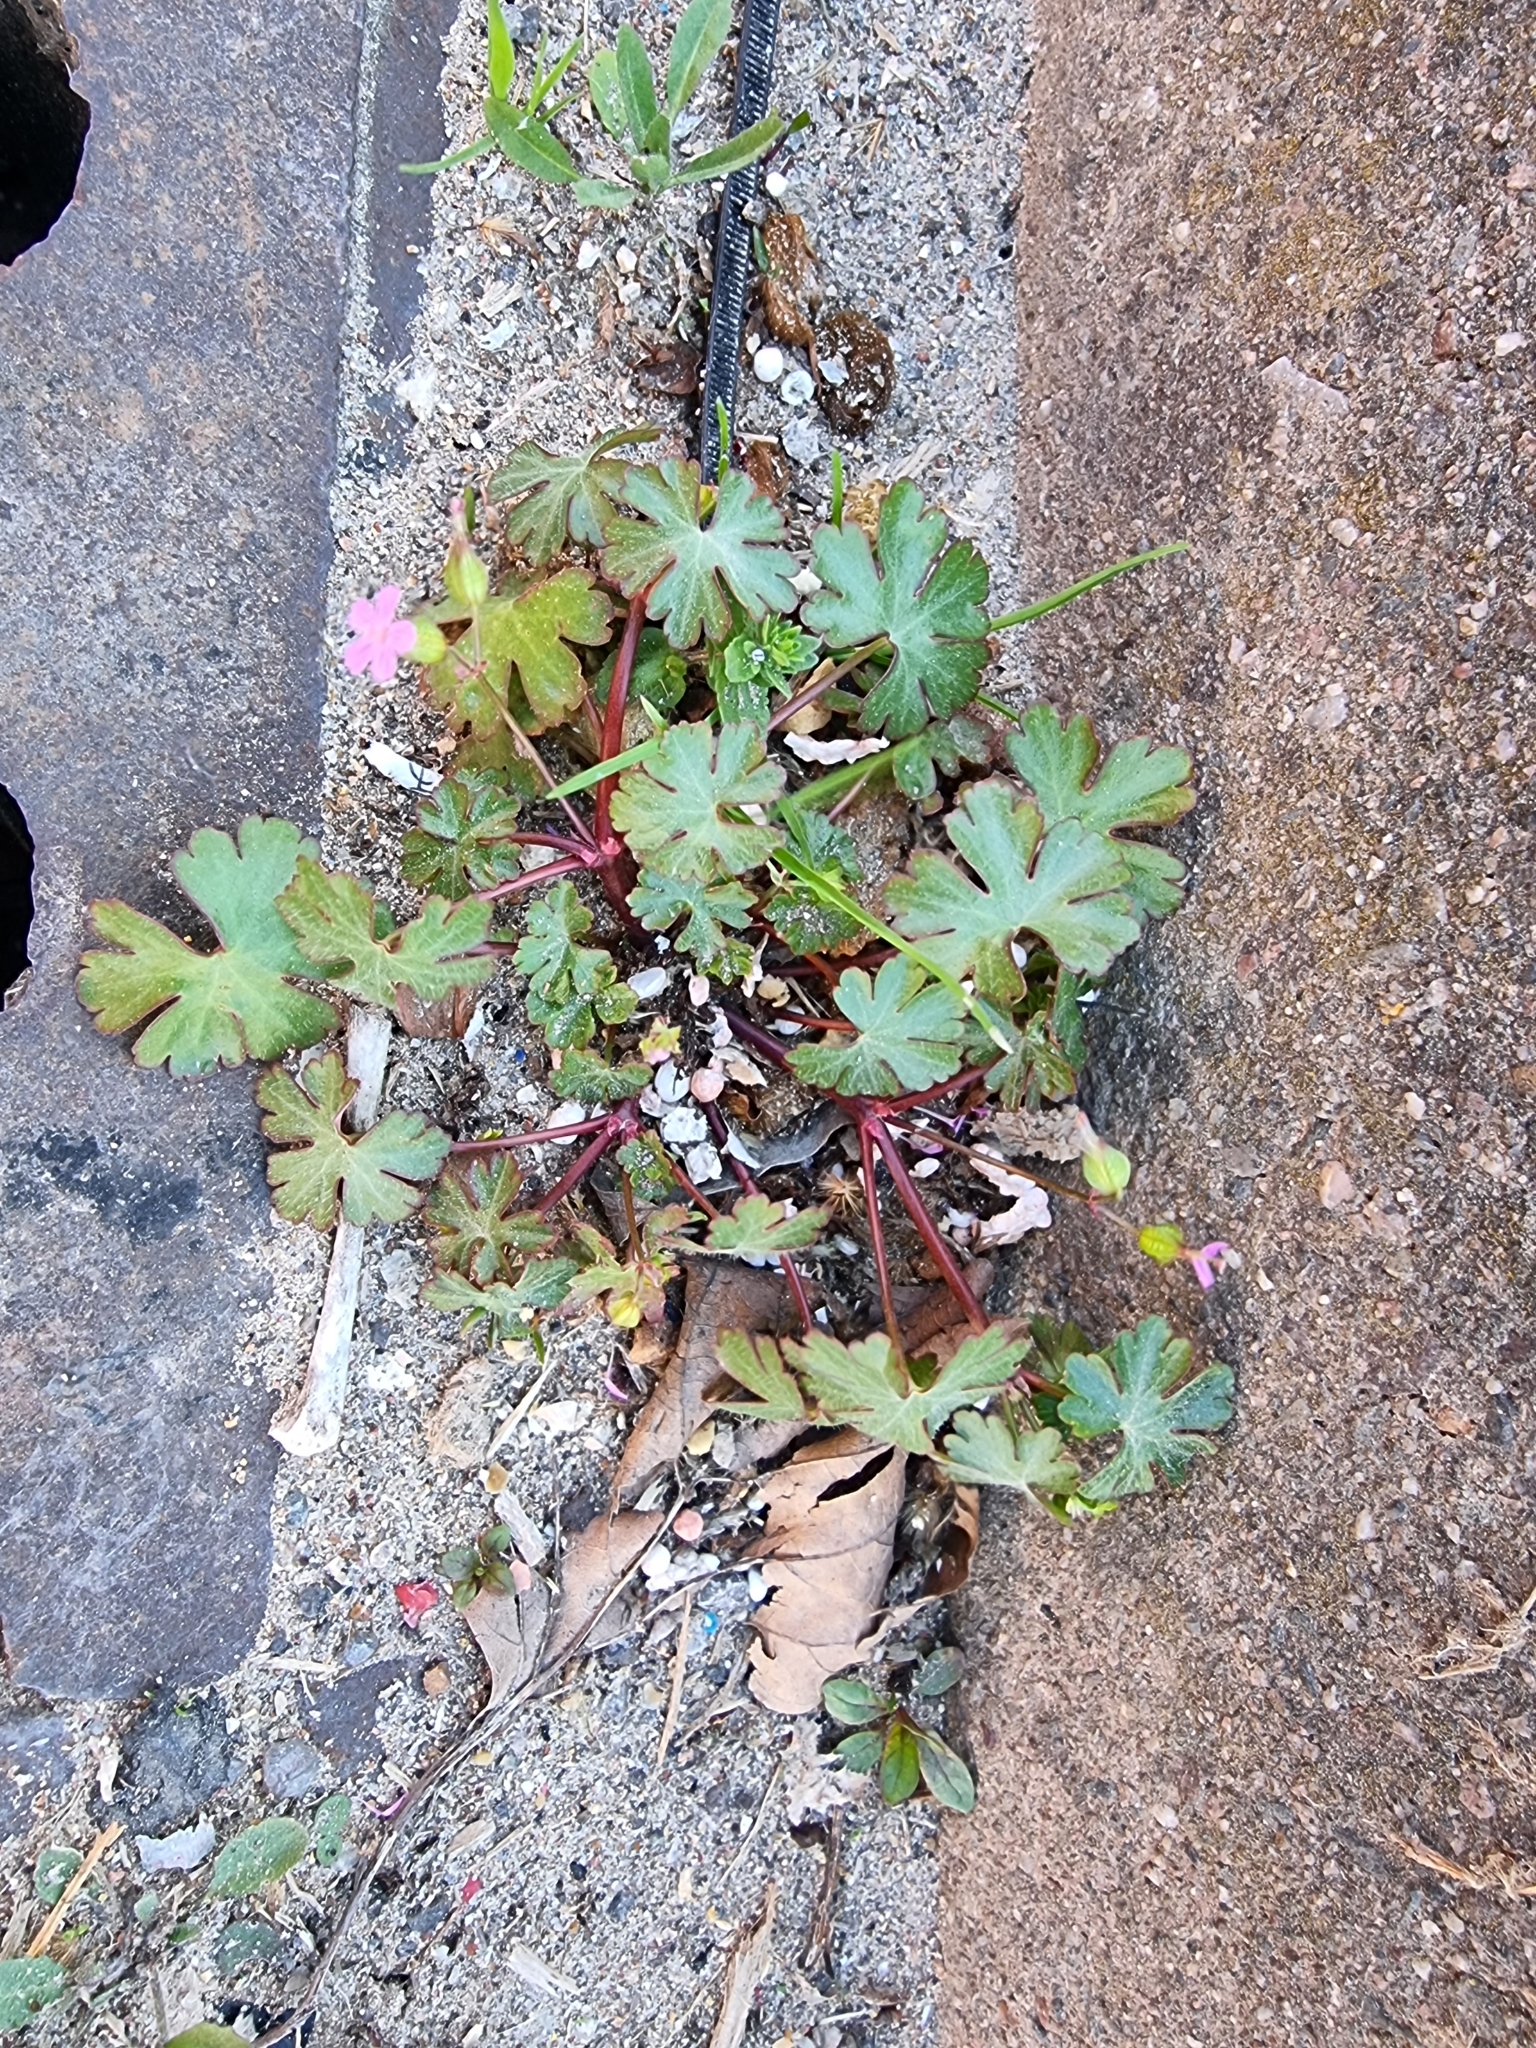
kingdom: Plantae
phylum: Tracheophyta
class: Magnoliopsida
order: Geraniales
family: Geraniaceae
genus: Geranium
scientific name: Geranium lucidum
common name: Shining crane's-bill
